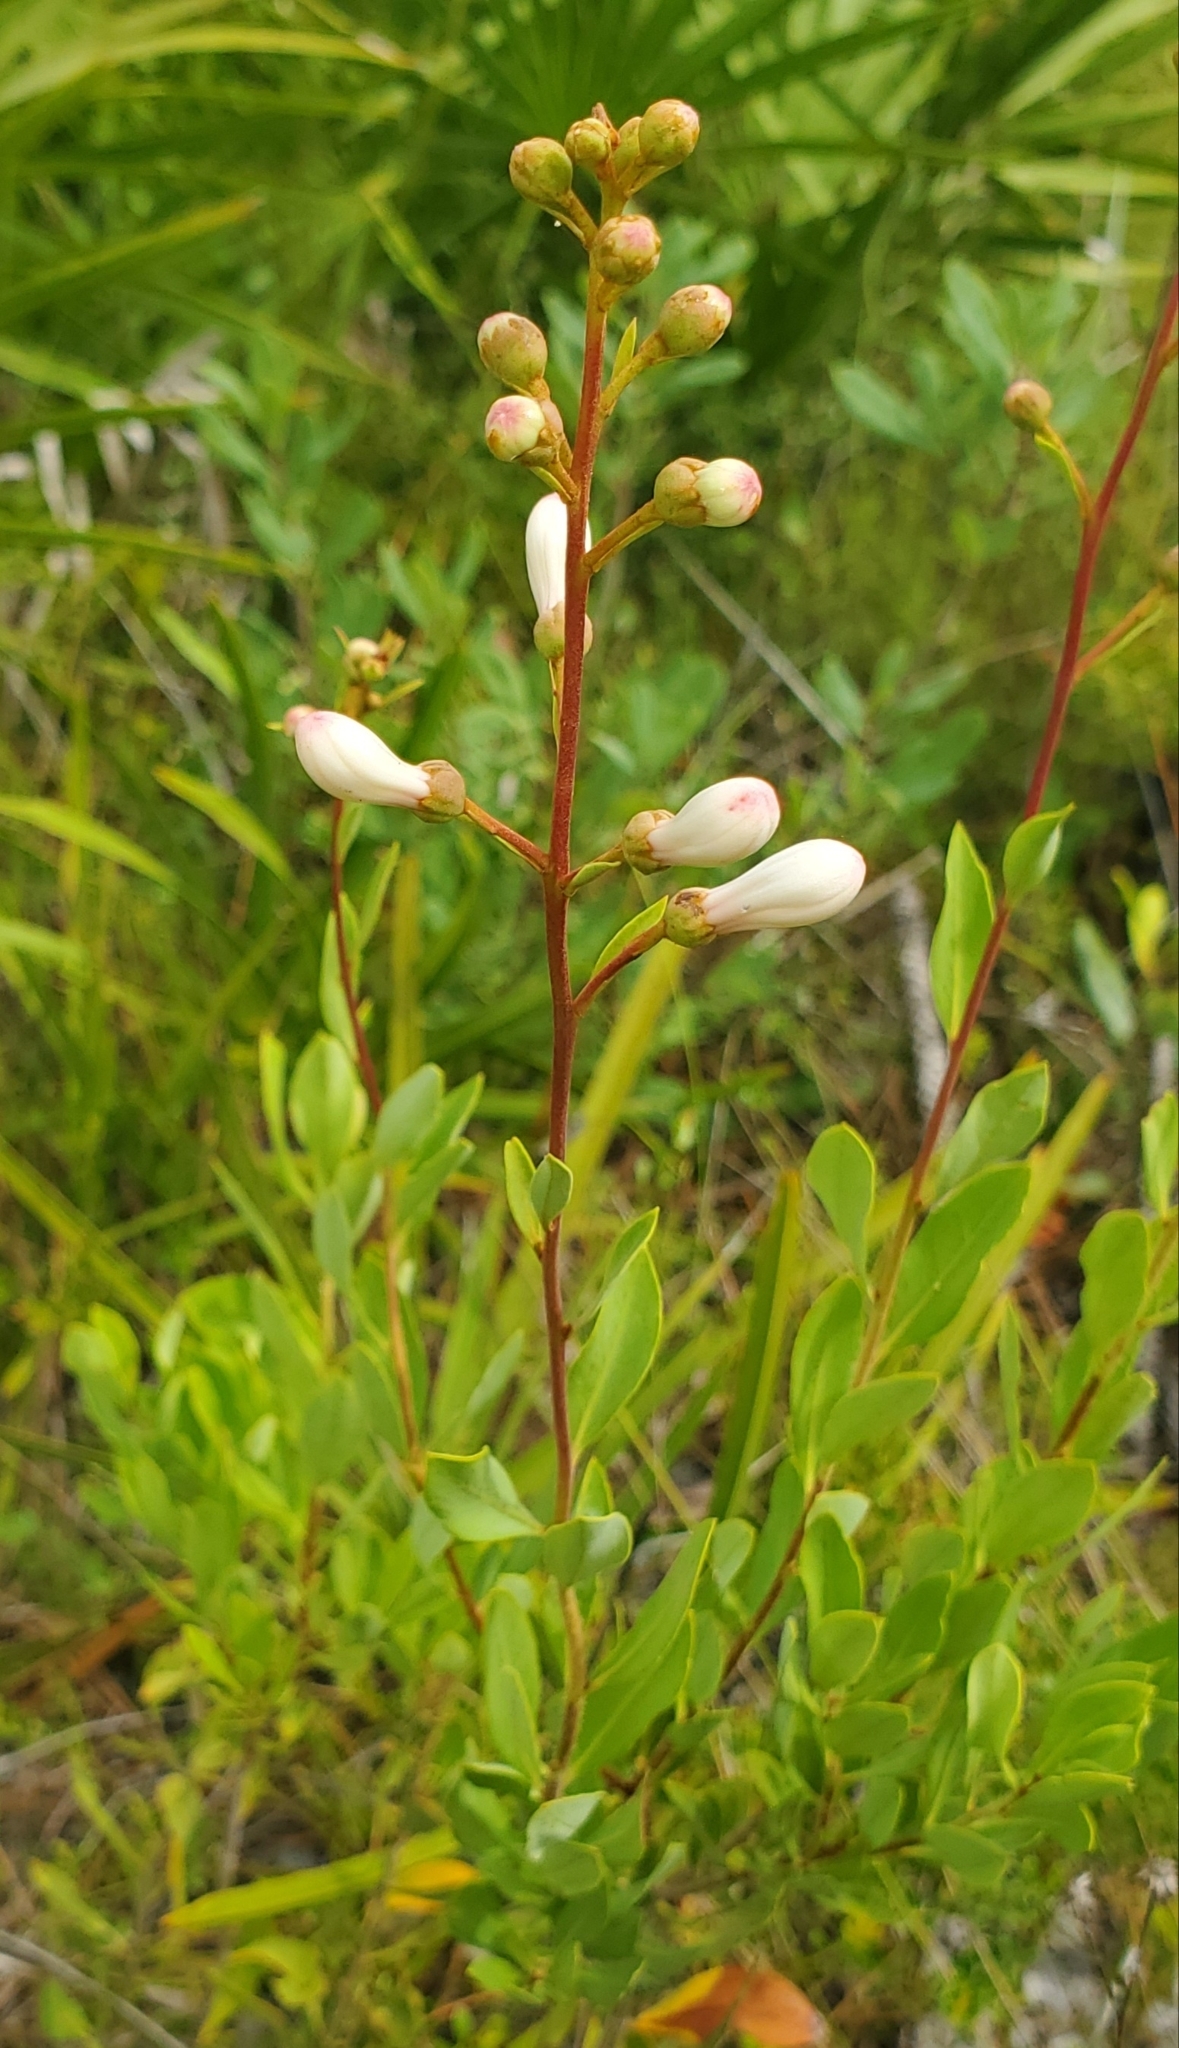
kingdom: Plantae
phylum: Tracheophyta
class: Magnoliopsida
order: Ericales
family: Ericaceae
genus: Bejaria
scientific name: Bejaria racemosa
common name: Tarflower
